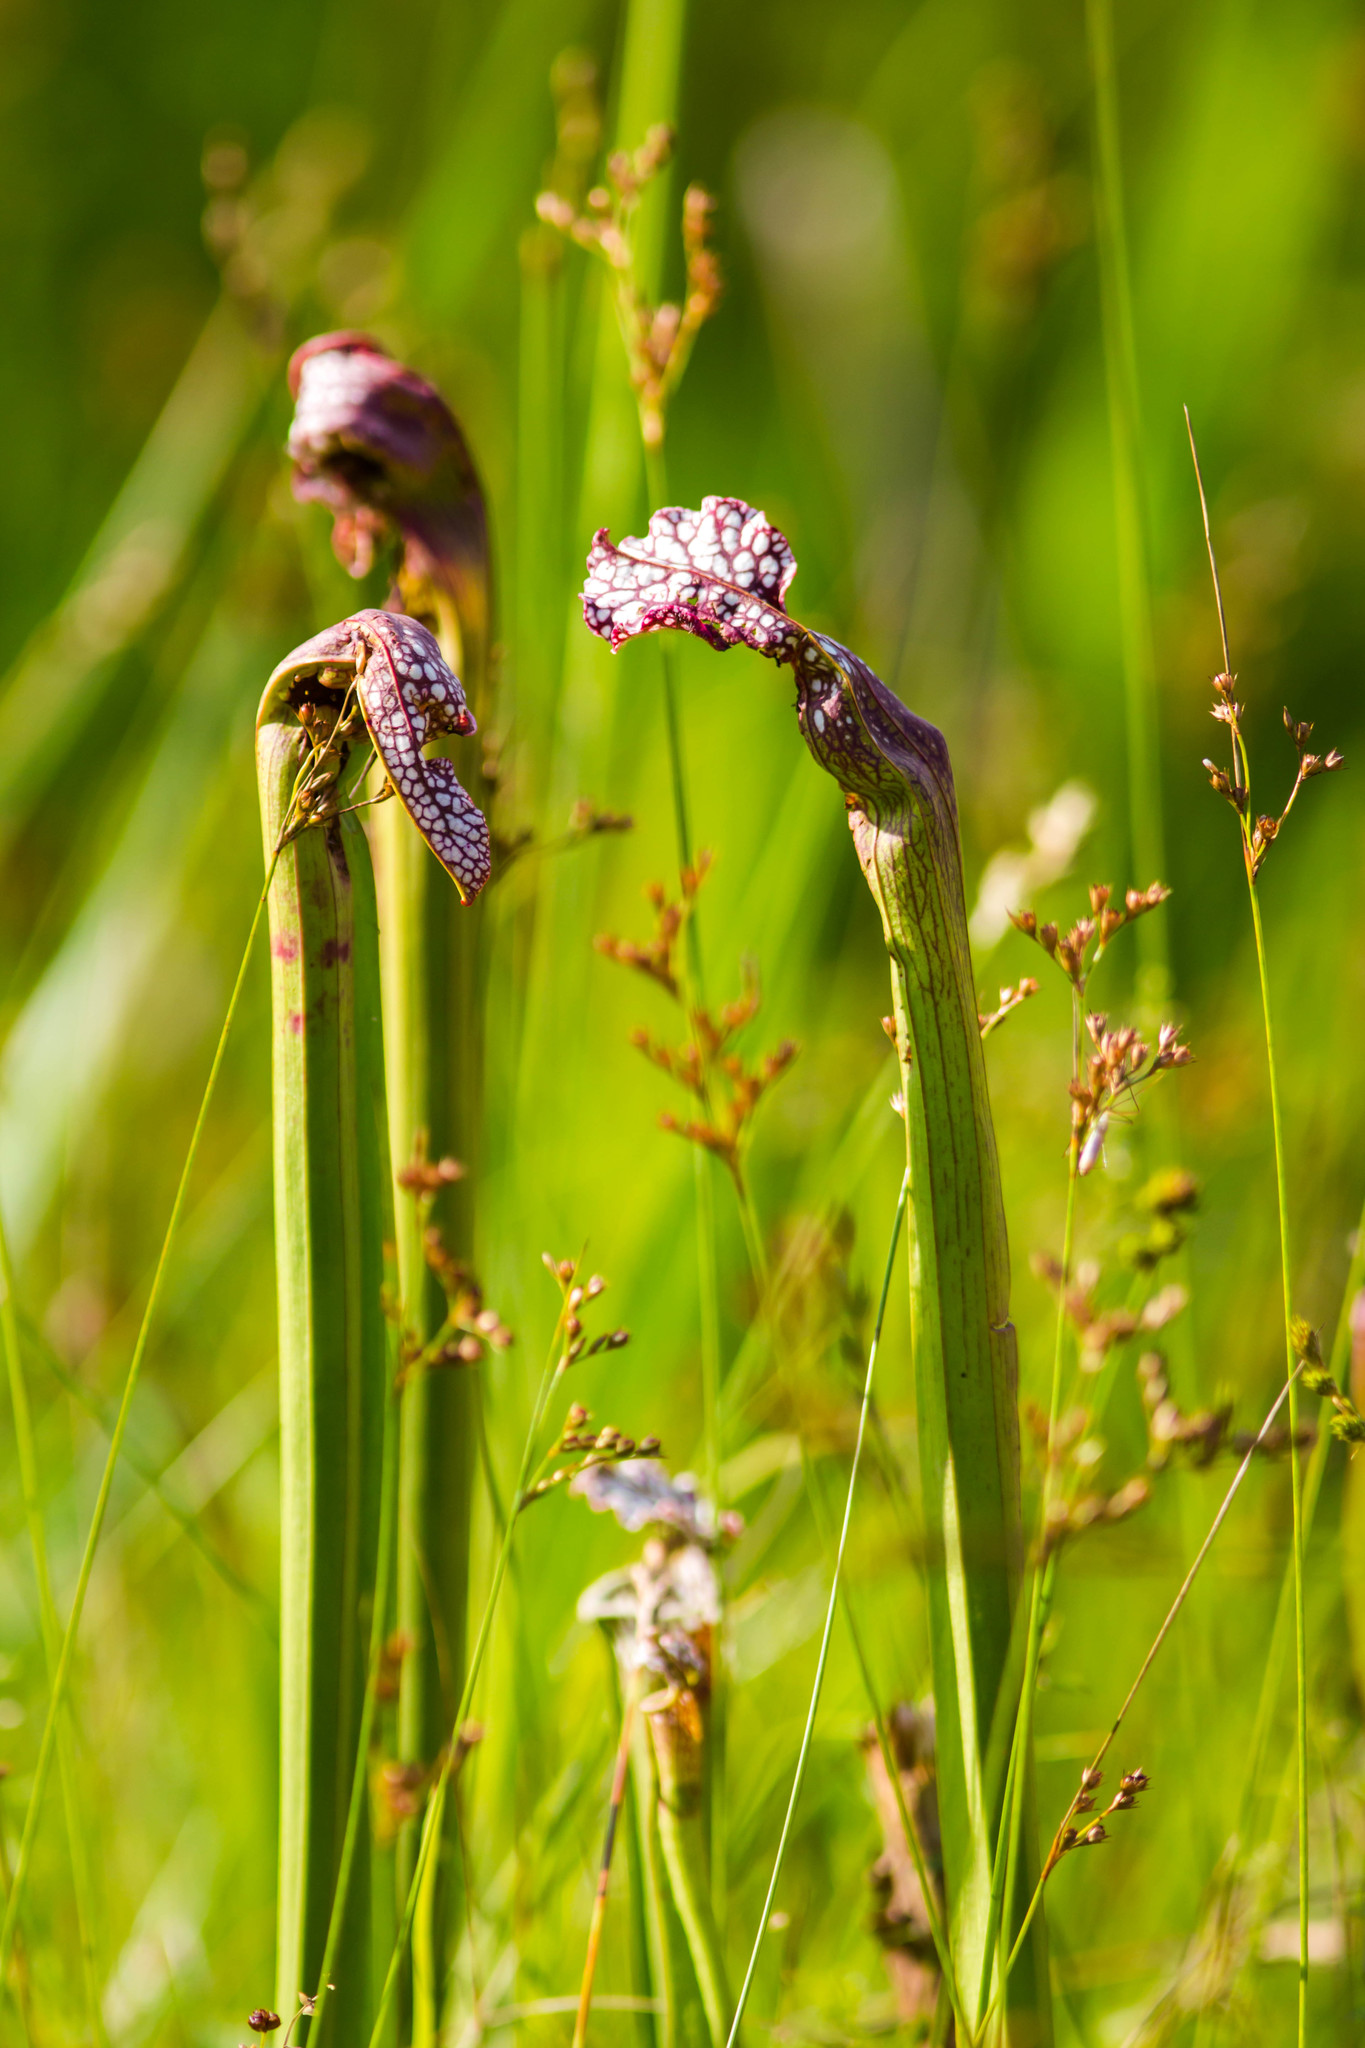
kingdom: Plantae
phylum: Tracheophyta
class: Magnoliopsida
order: Ericales
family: Sarraceniaceae
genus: Sarracenia
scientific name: Sarracenia leucophylla
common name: Purple trumpetleaf
